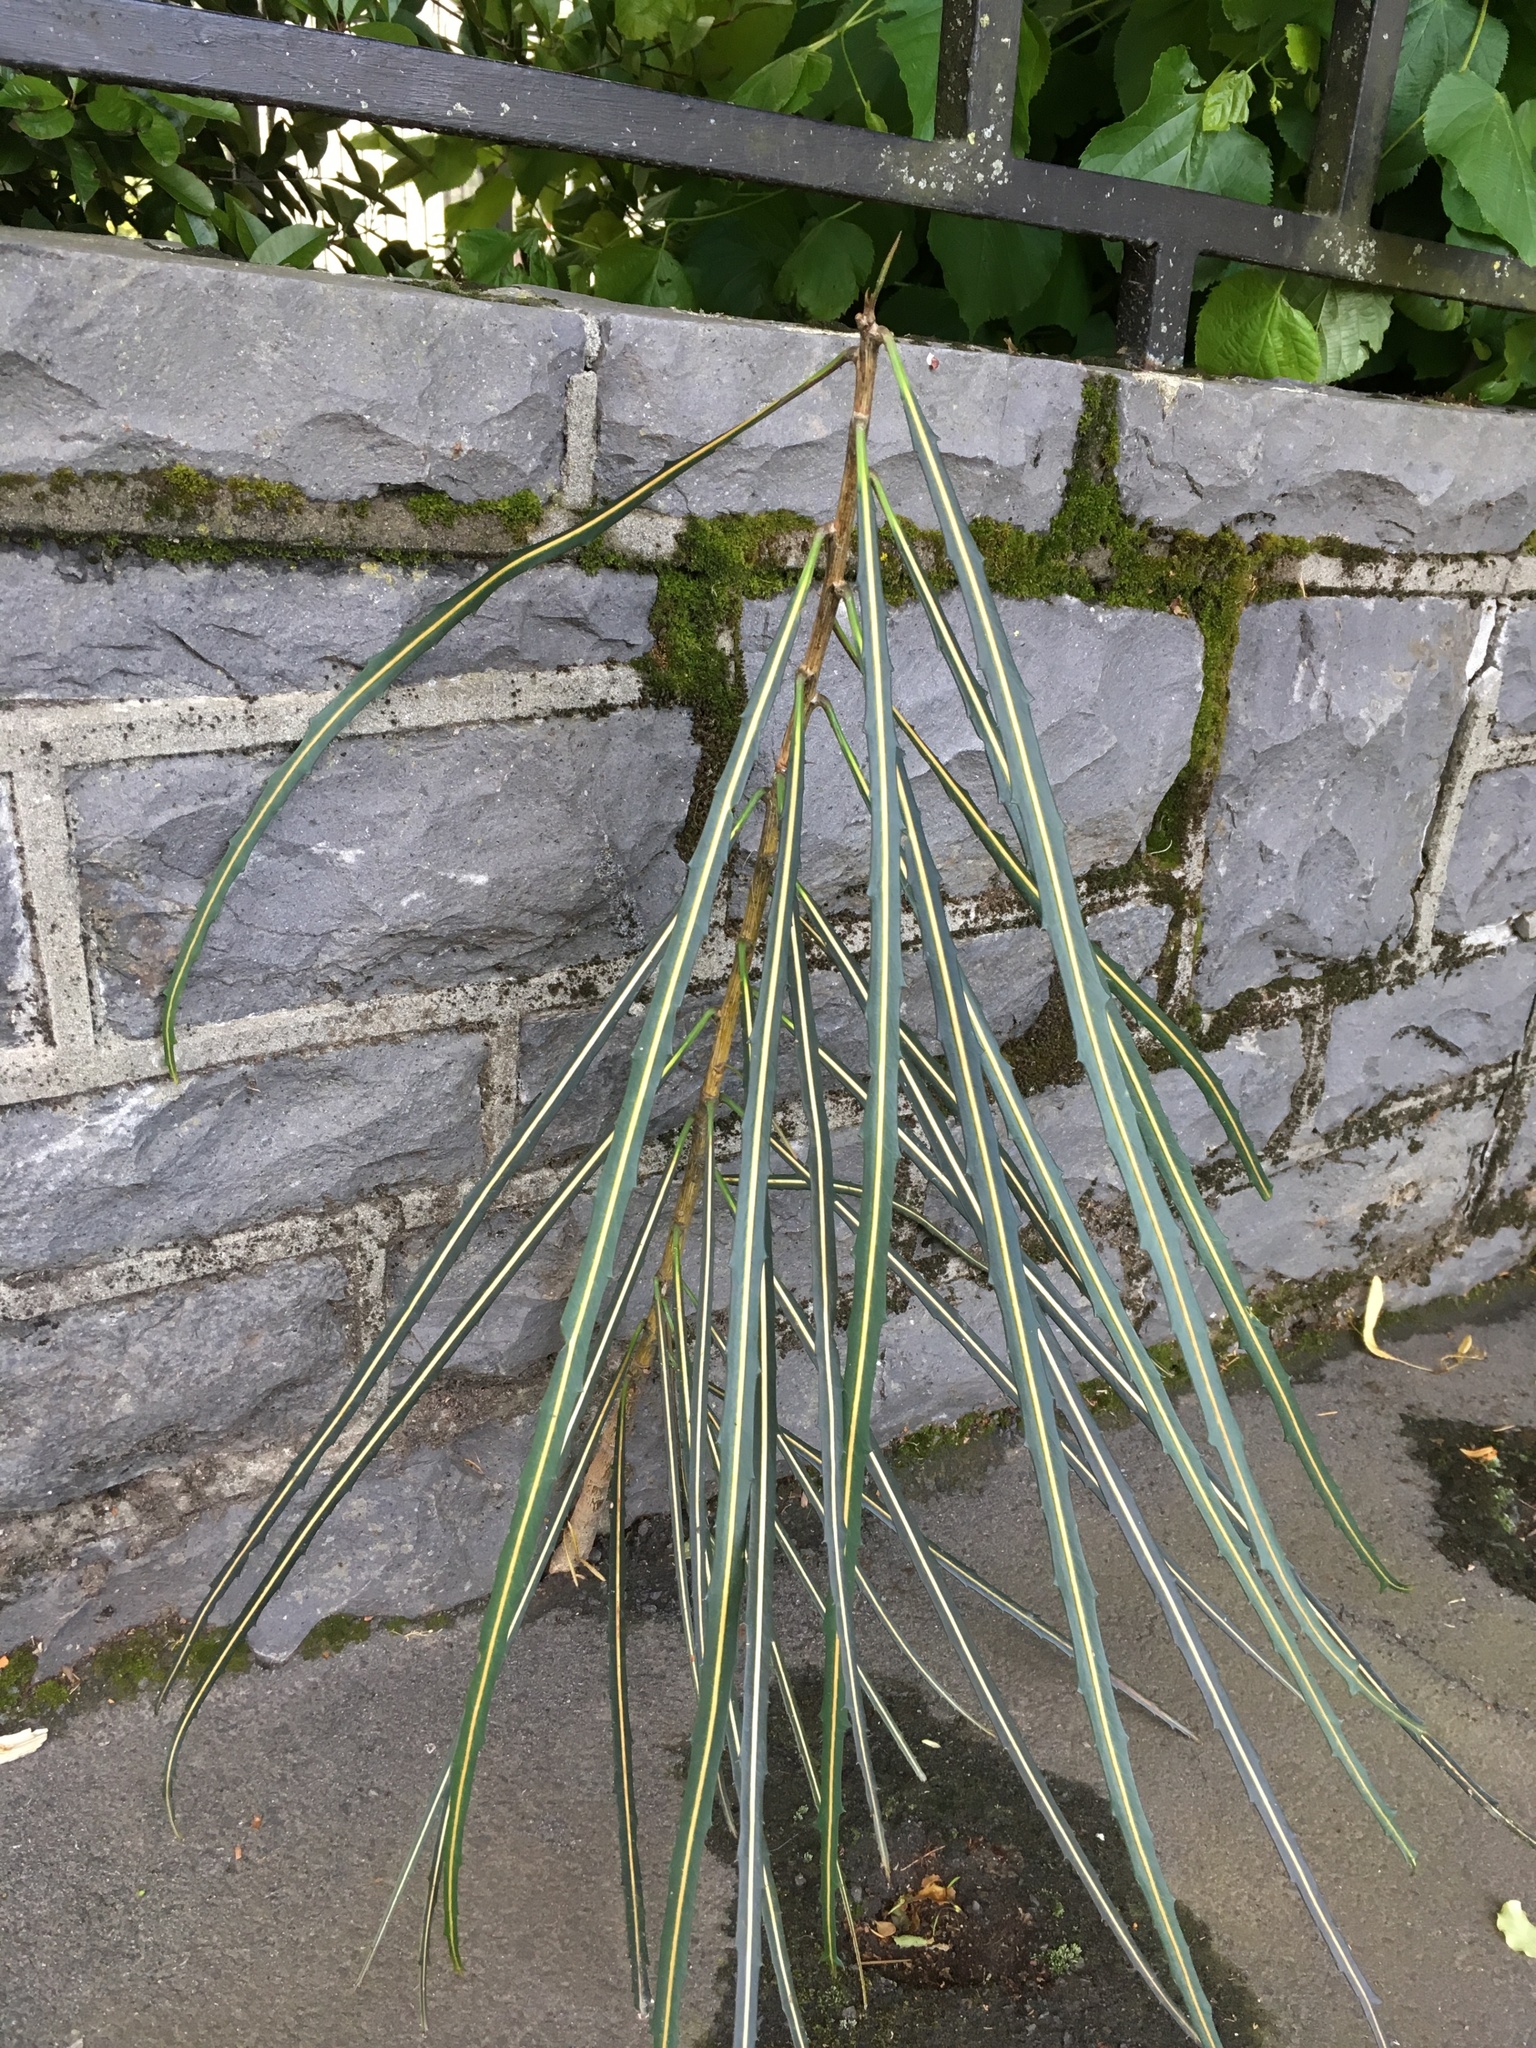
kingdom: Plantae
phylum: Tracheophyta
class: Magnoliopsida
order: Apiales
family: Araliaceae
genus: Pseudopanax
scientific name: Pseudopanax crassifolius
